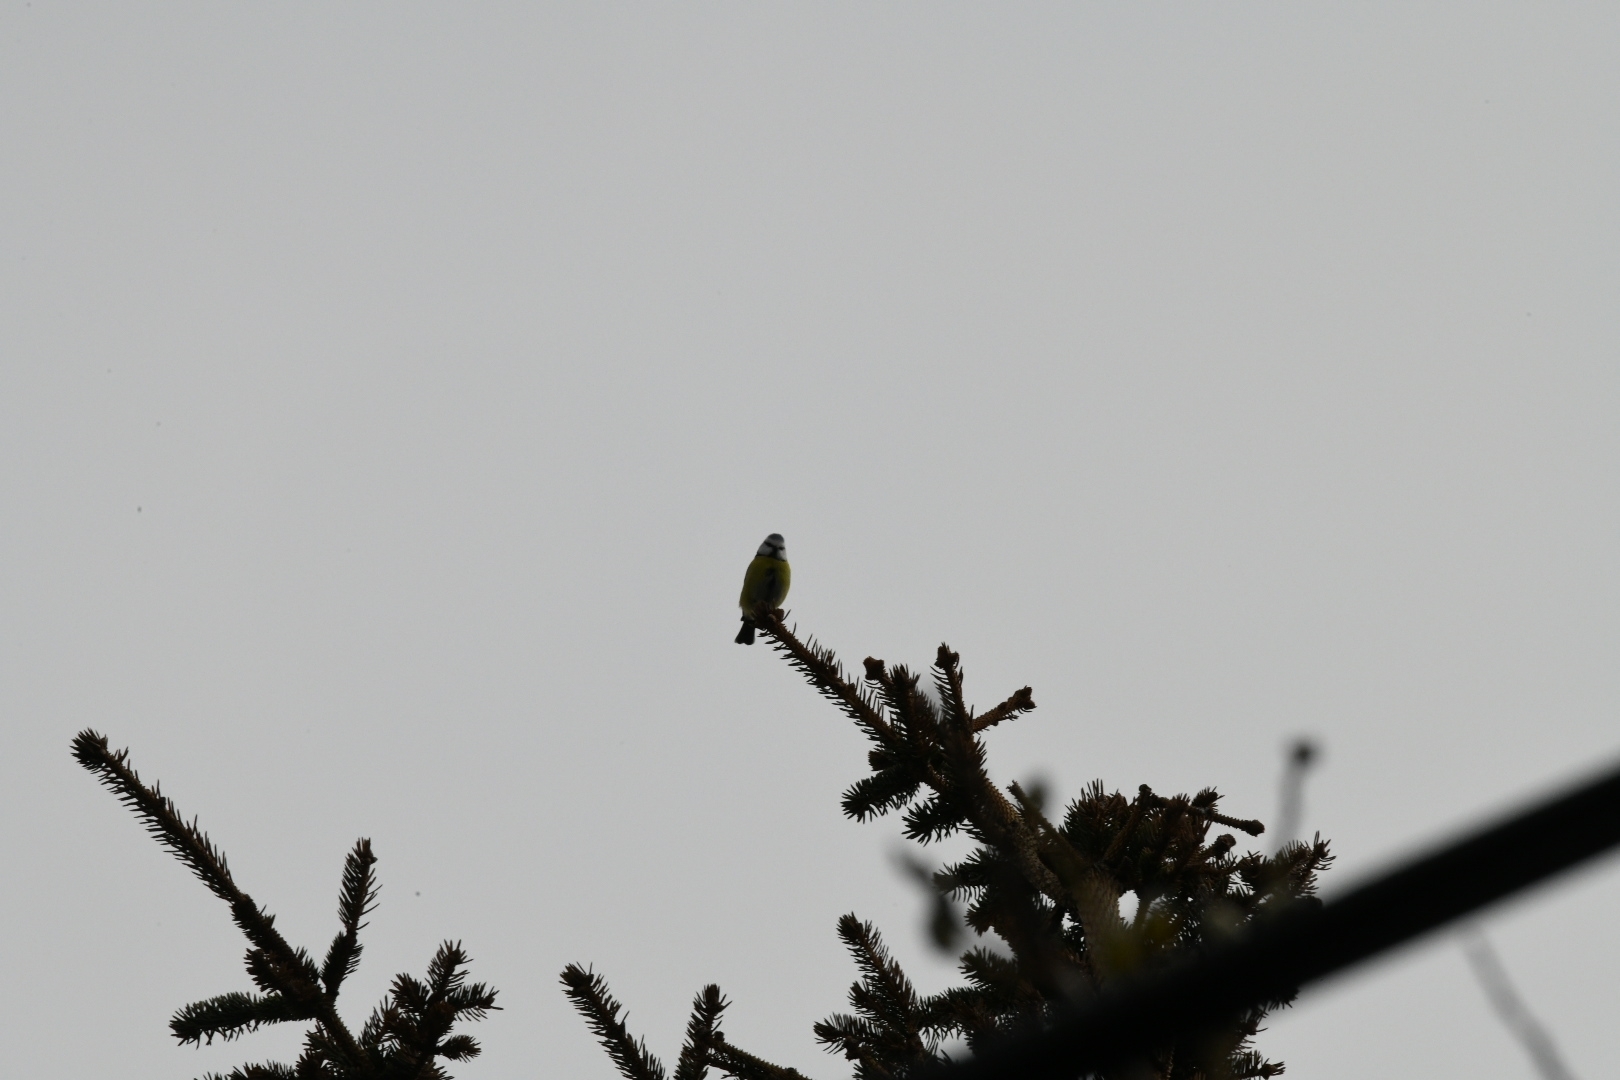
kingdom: Animalia
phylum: Chordata
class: Aves
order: Passeriformes
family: Paridae
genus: Cyanistes
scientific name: Cyanistes caeruleus
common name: Eurasian blue tit
